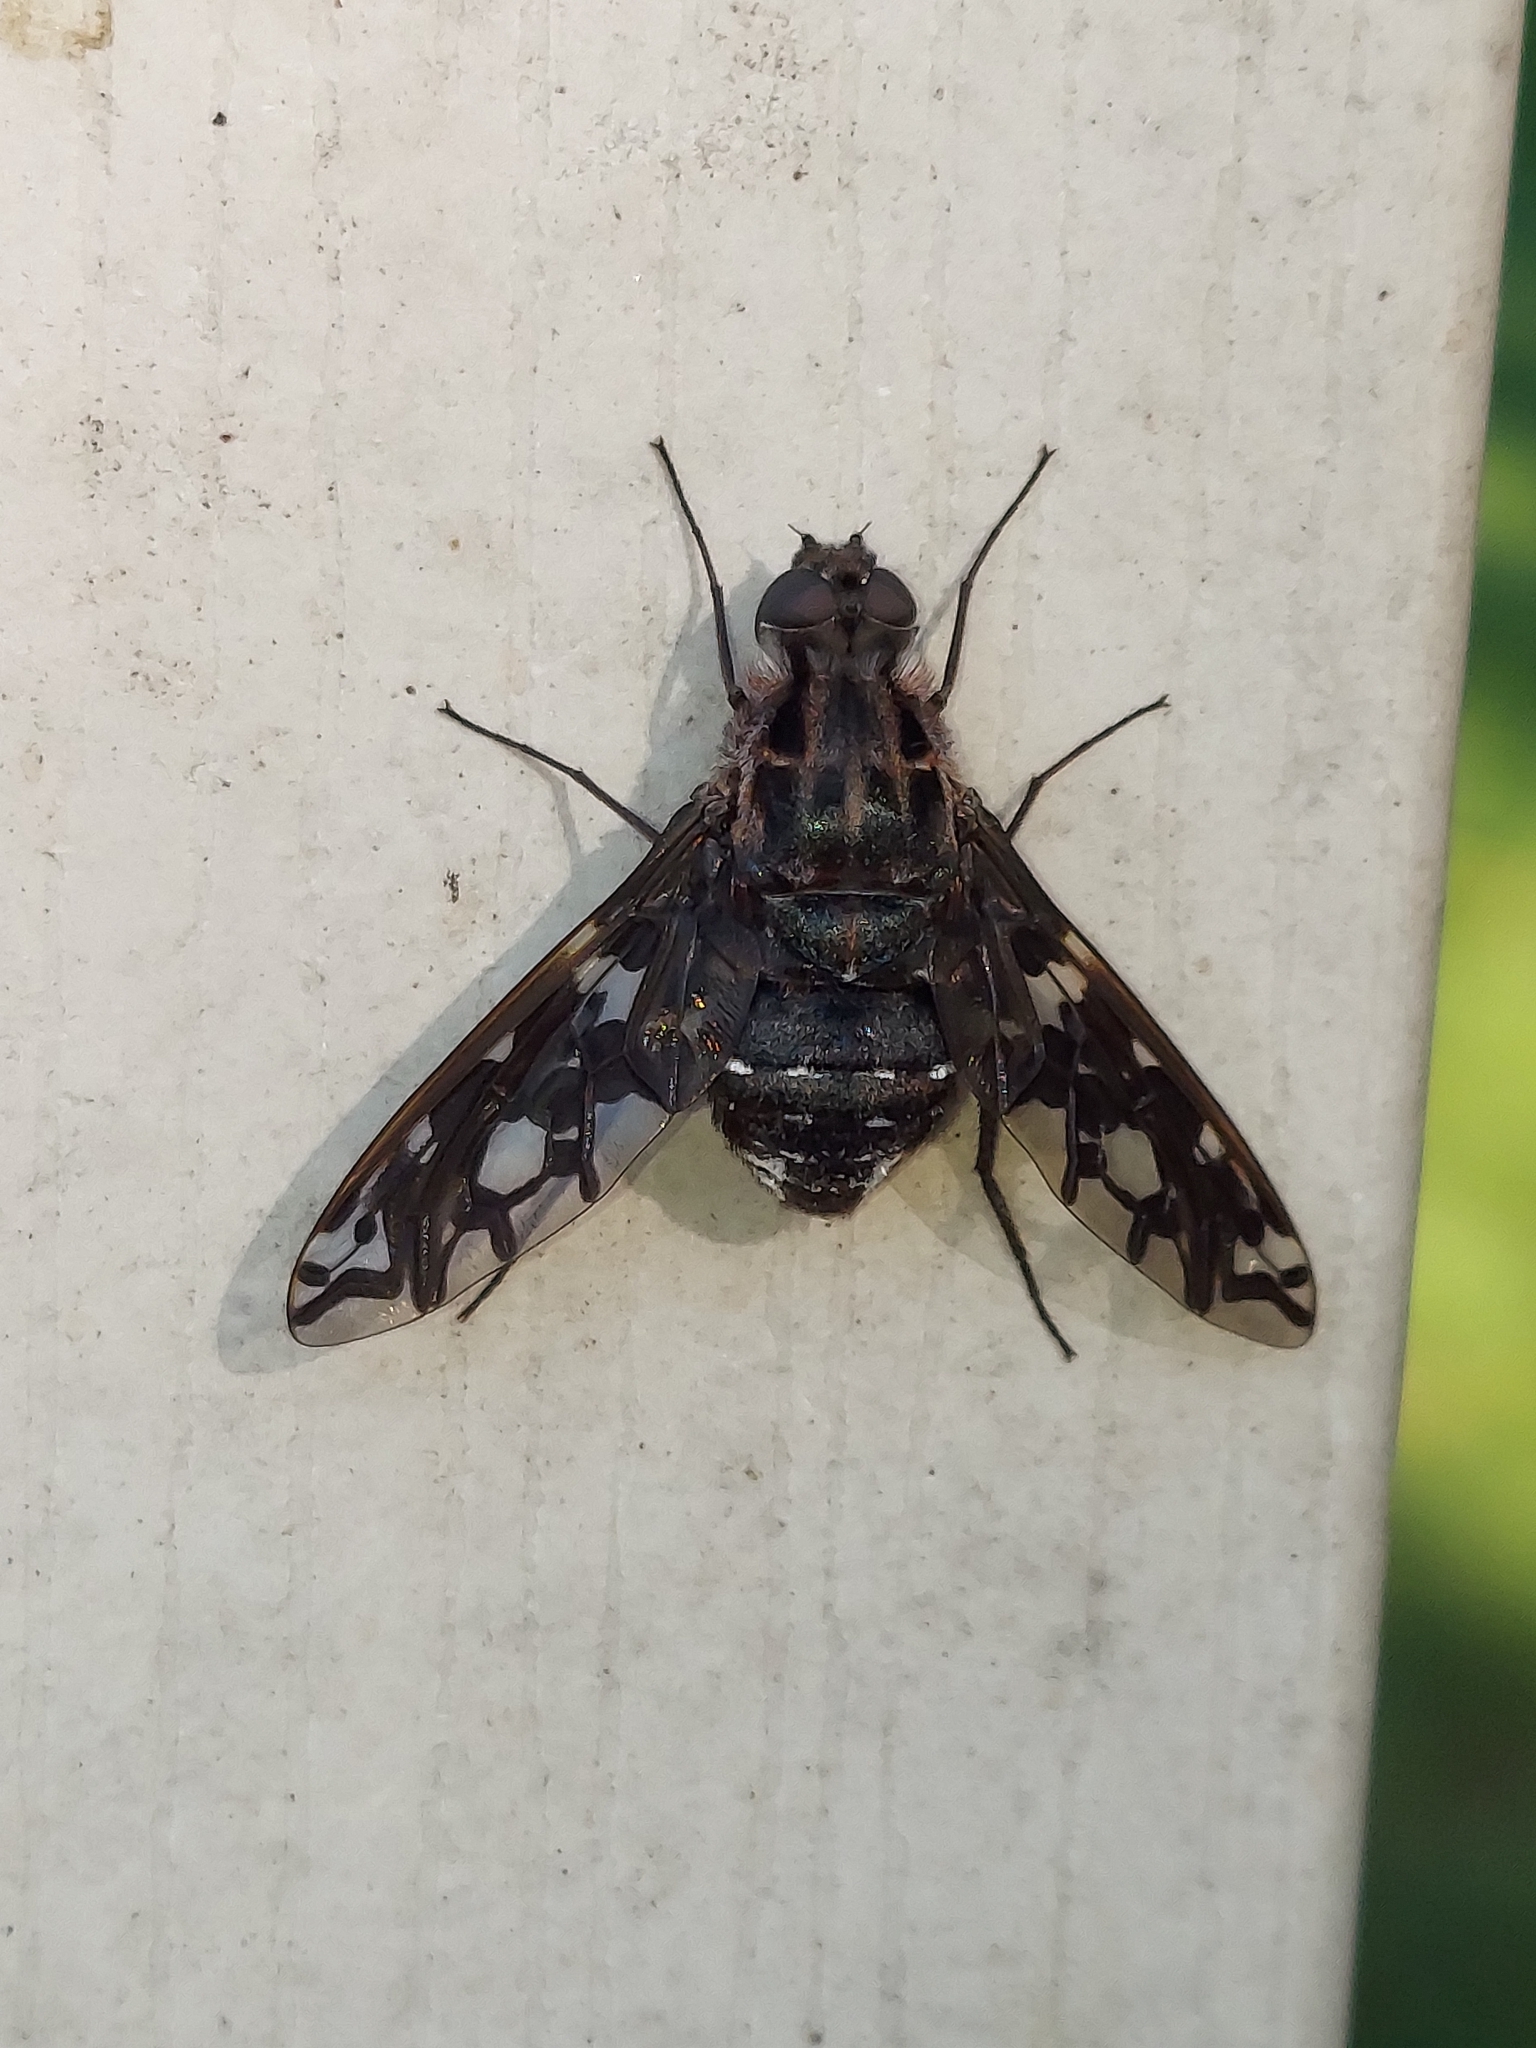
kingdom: Animalia
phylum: Arthropoda
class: Insecta
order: Diptera
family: Bombyliidae
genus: Xenox
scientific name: Xenox tigrinus
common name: Tiger bee fly
